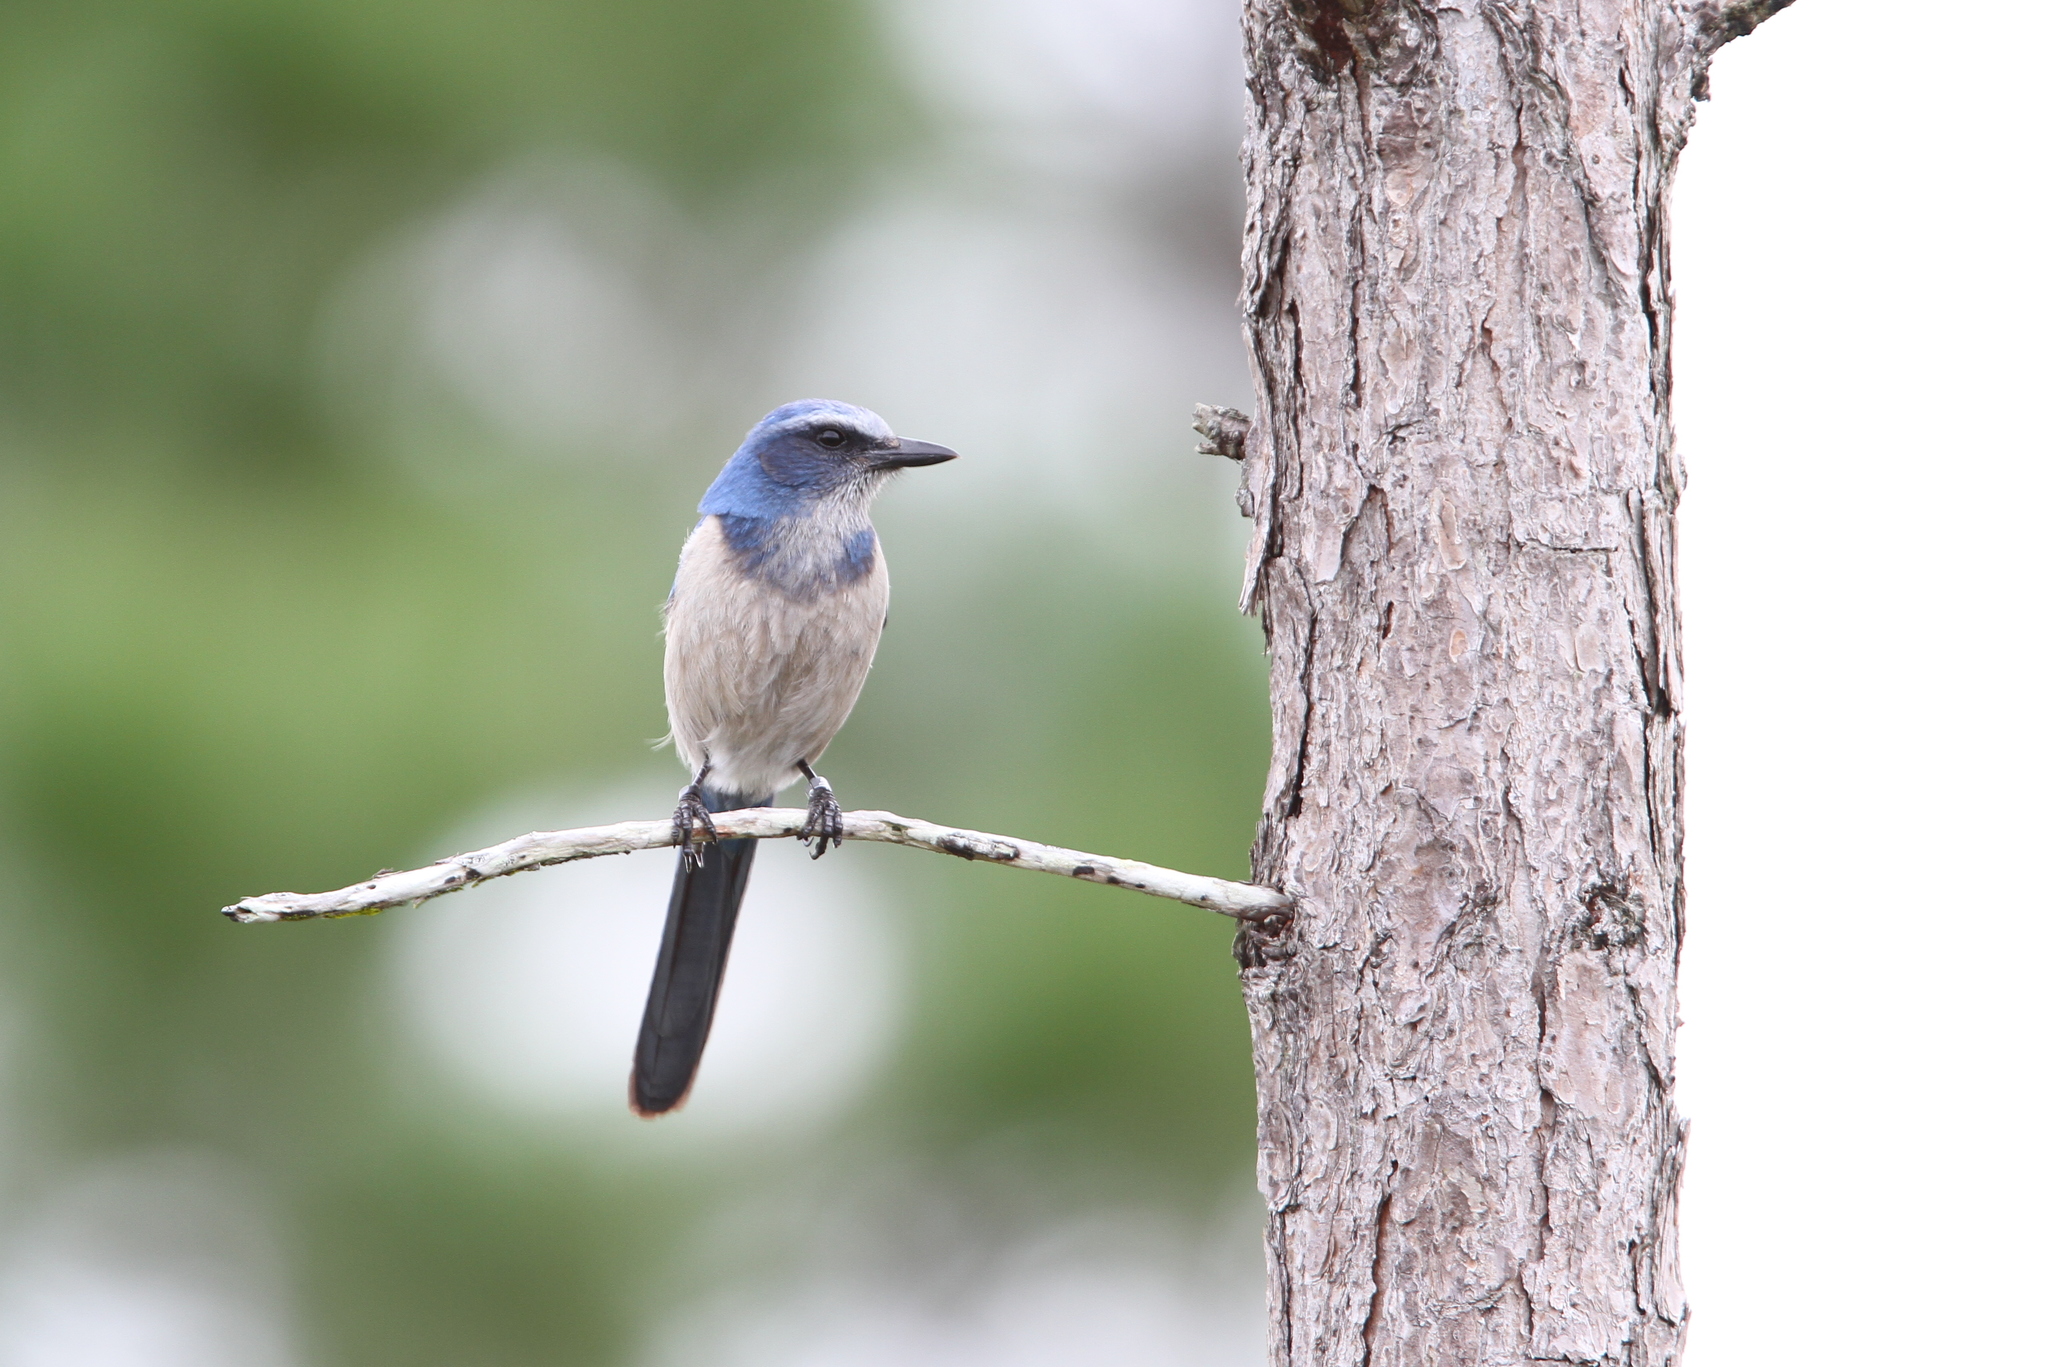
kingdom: Animalia
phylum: Chordata
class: Aves
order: Passeriformes
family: Corvidae
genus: Aphelocoma
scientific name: Aphelocoma coerulescens
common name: Florida scrub jay
